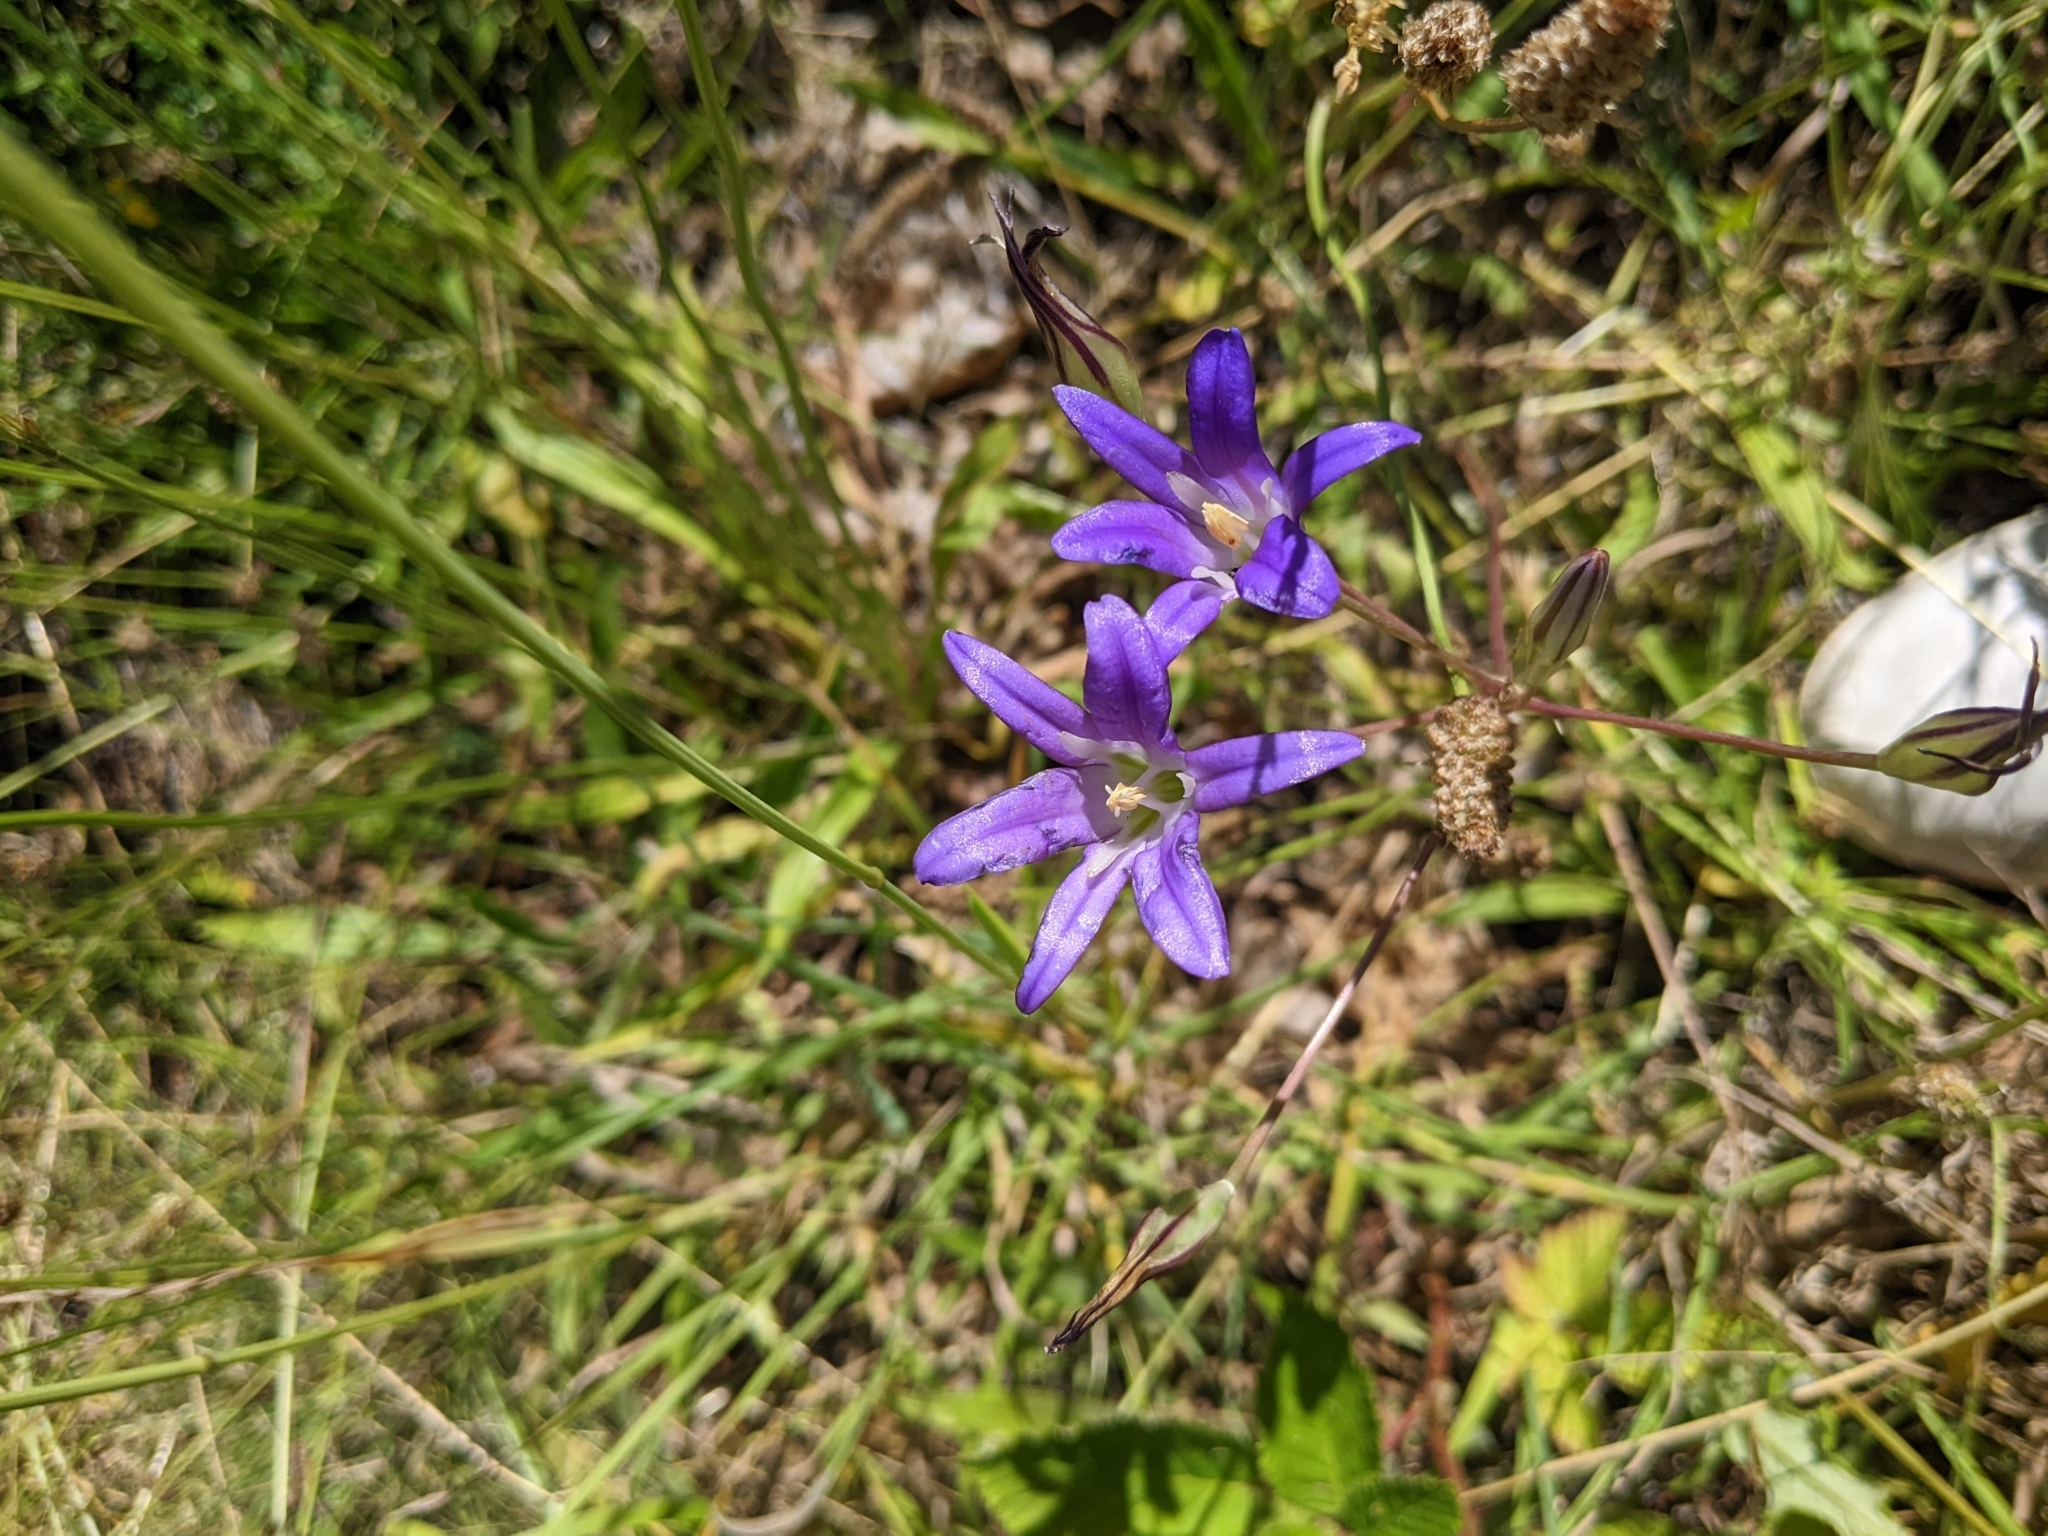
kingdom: Plantae
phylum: Tracheophyta
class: Liliopsida
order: Asparagales
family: Asparagaceae
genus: Brodiaea
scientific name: Brodiaea elegans
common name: Elegant cluster-lily
